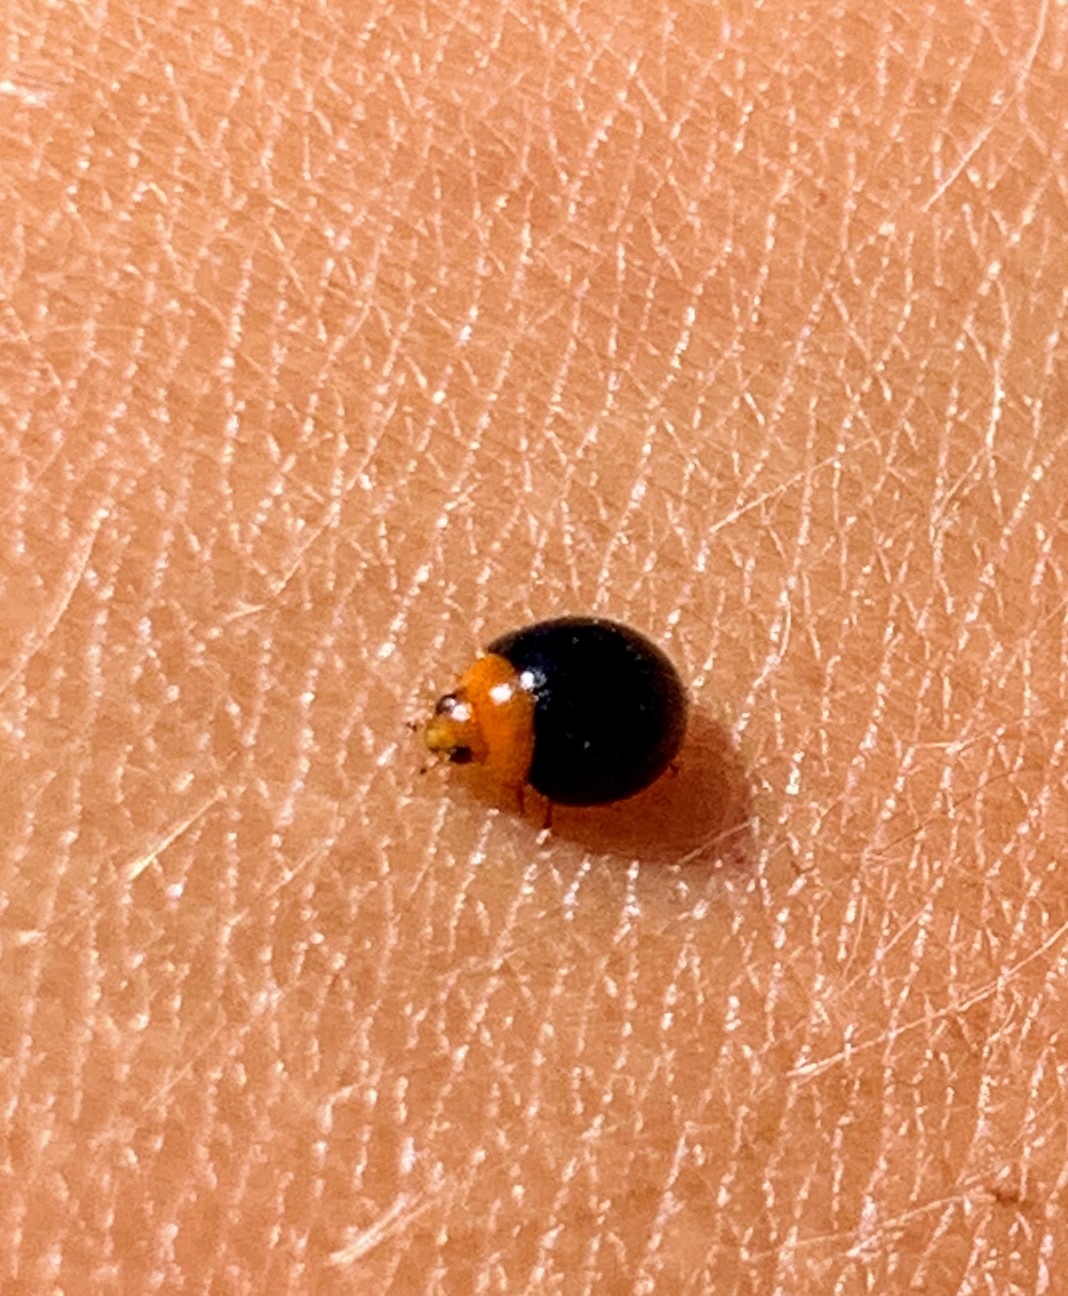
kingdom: Animalia
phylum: Arthropoda
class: Insecta
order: Coleoptera
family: Coccinellidae
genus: Exochomus
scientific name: Exochomus nigripennis
